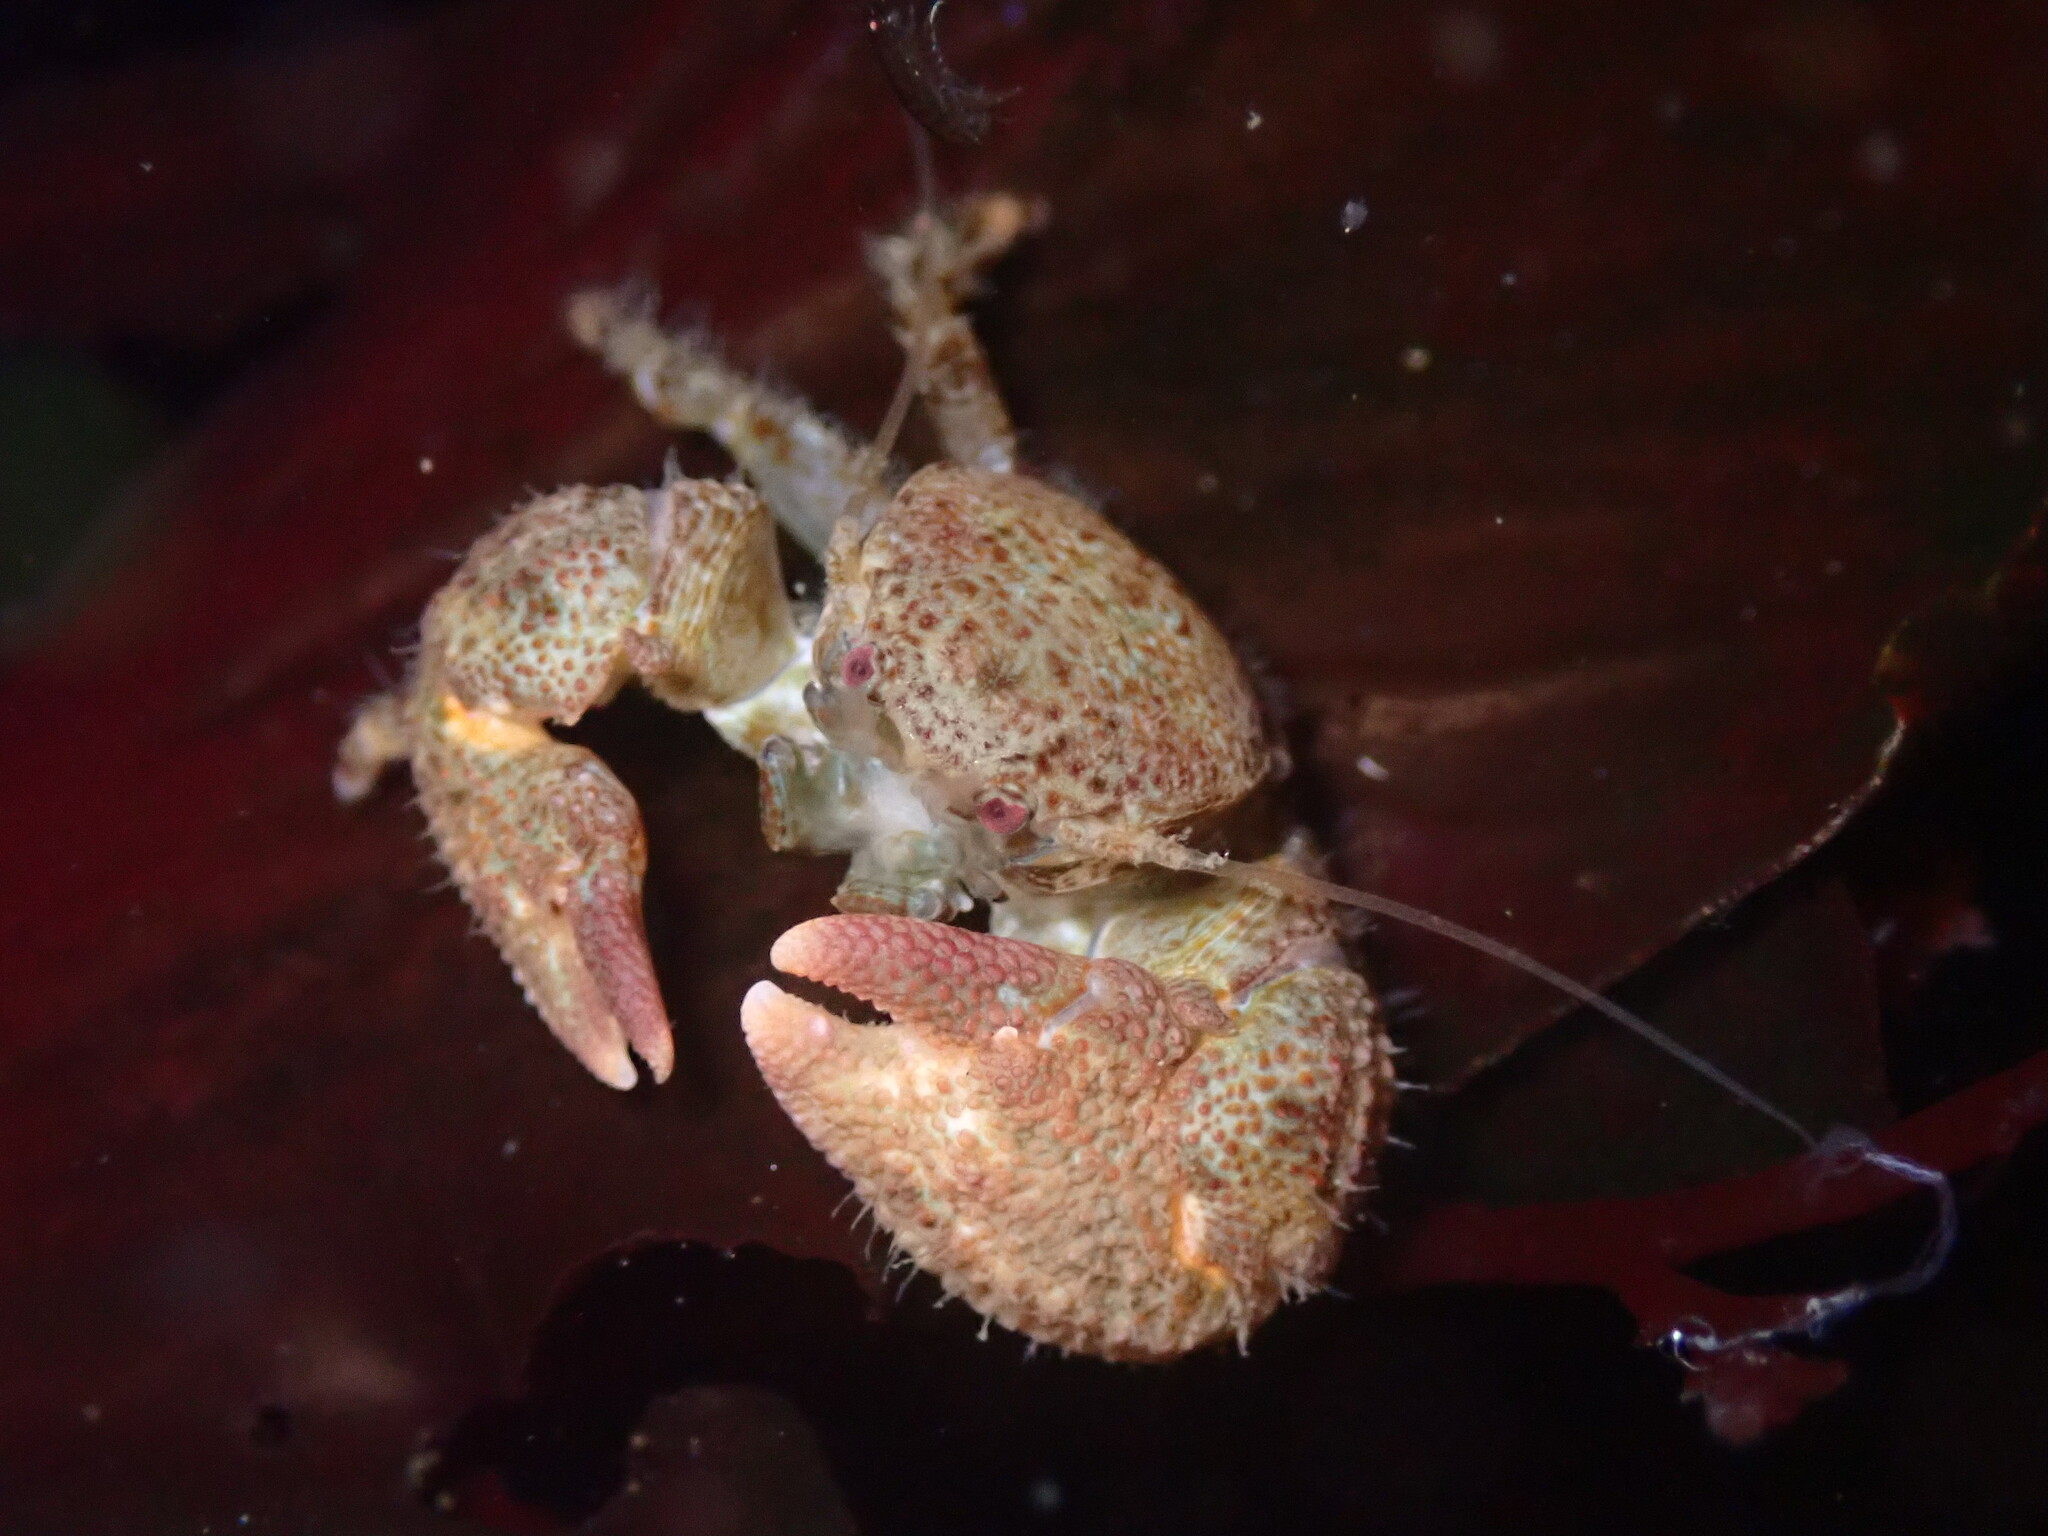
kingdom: Animalia
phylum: Arthropoda
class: Malacostraca
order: Decapoda
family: Porcellanidae
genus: Pachycheles
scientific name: Pachycheles rudis
